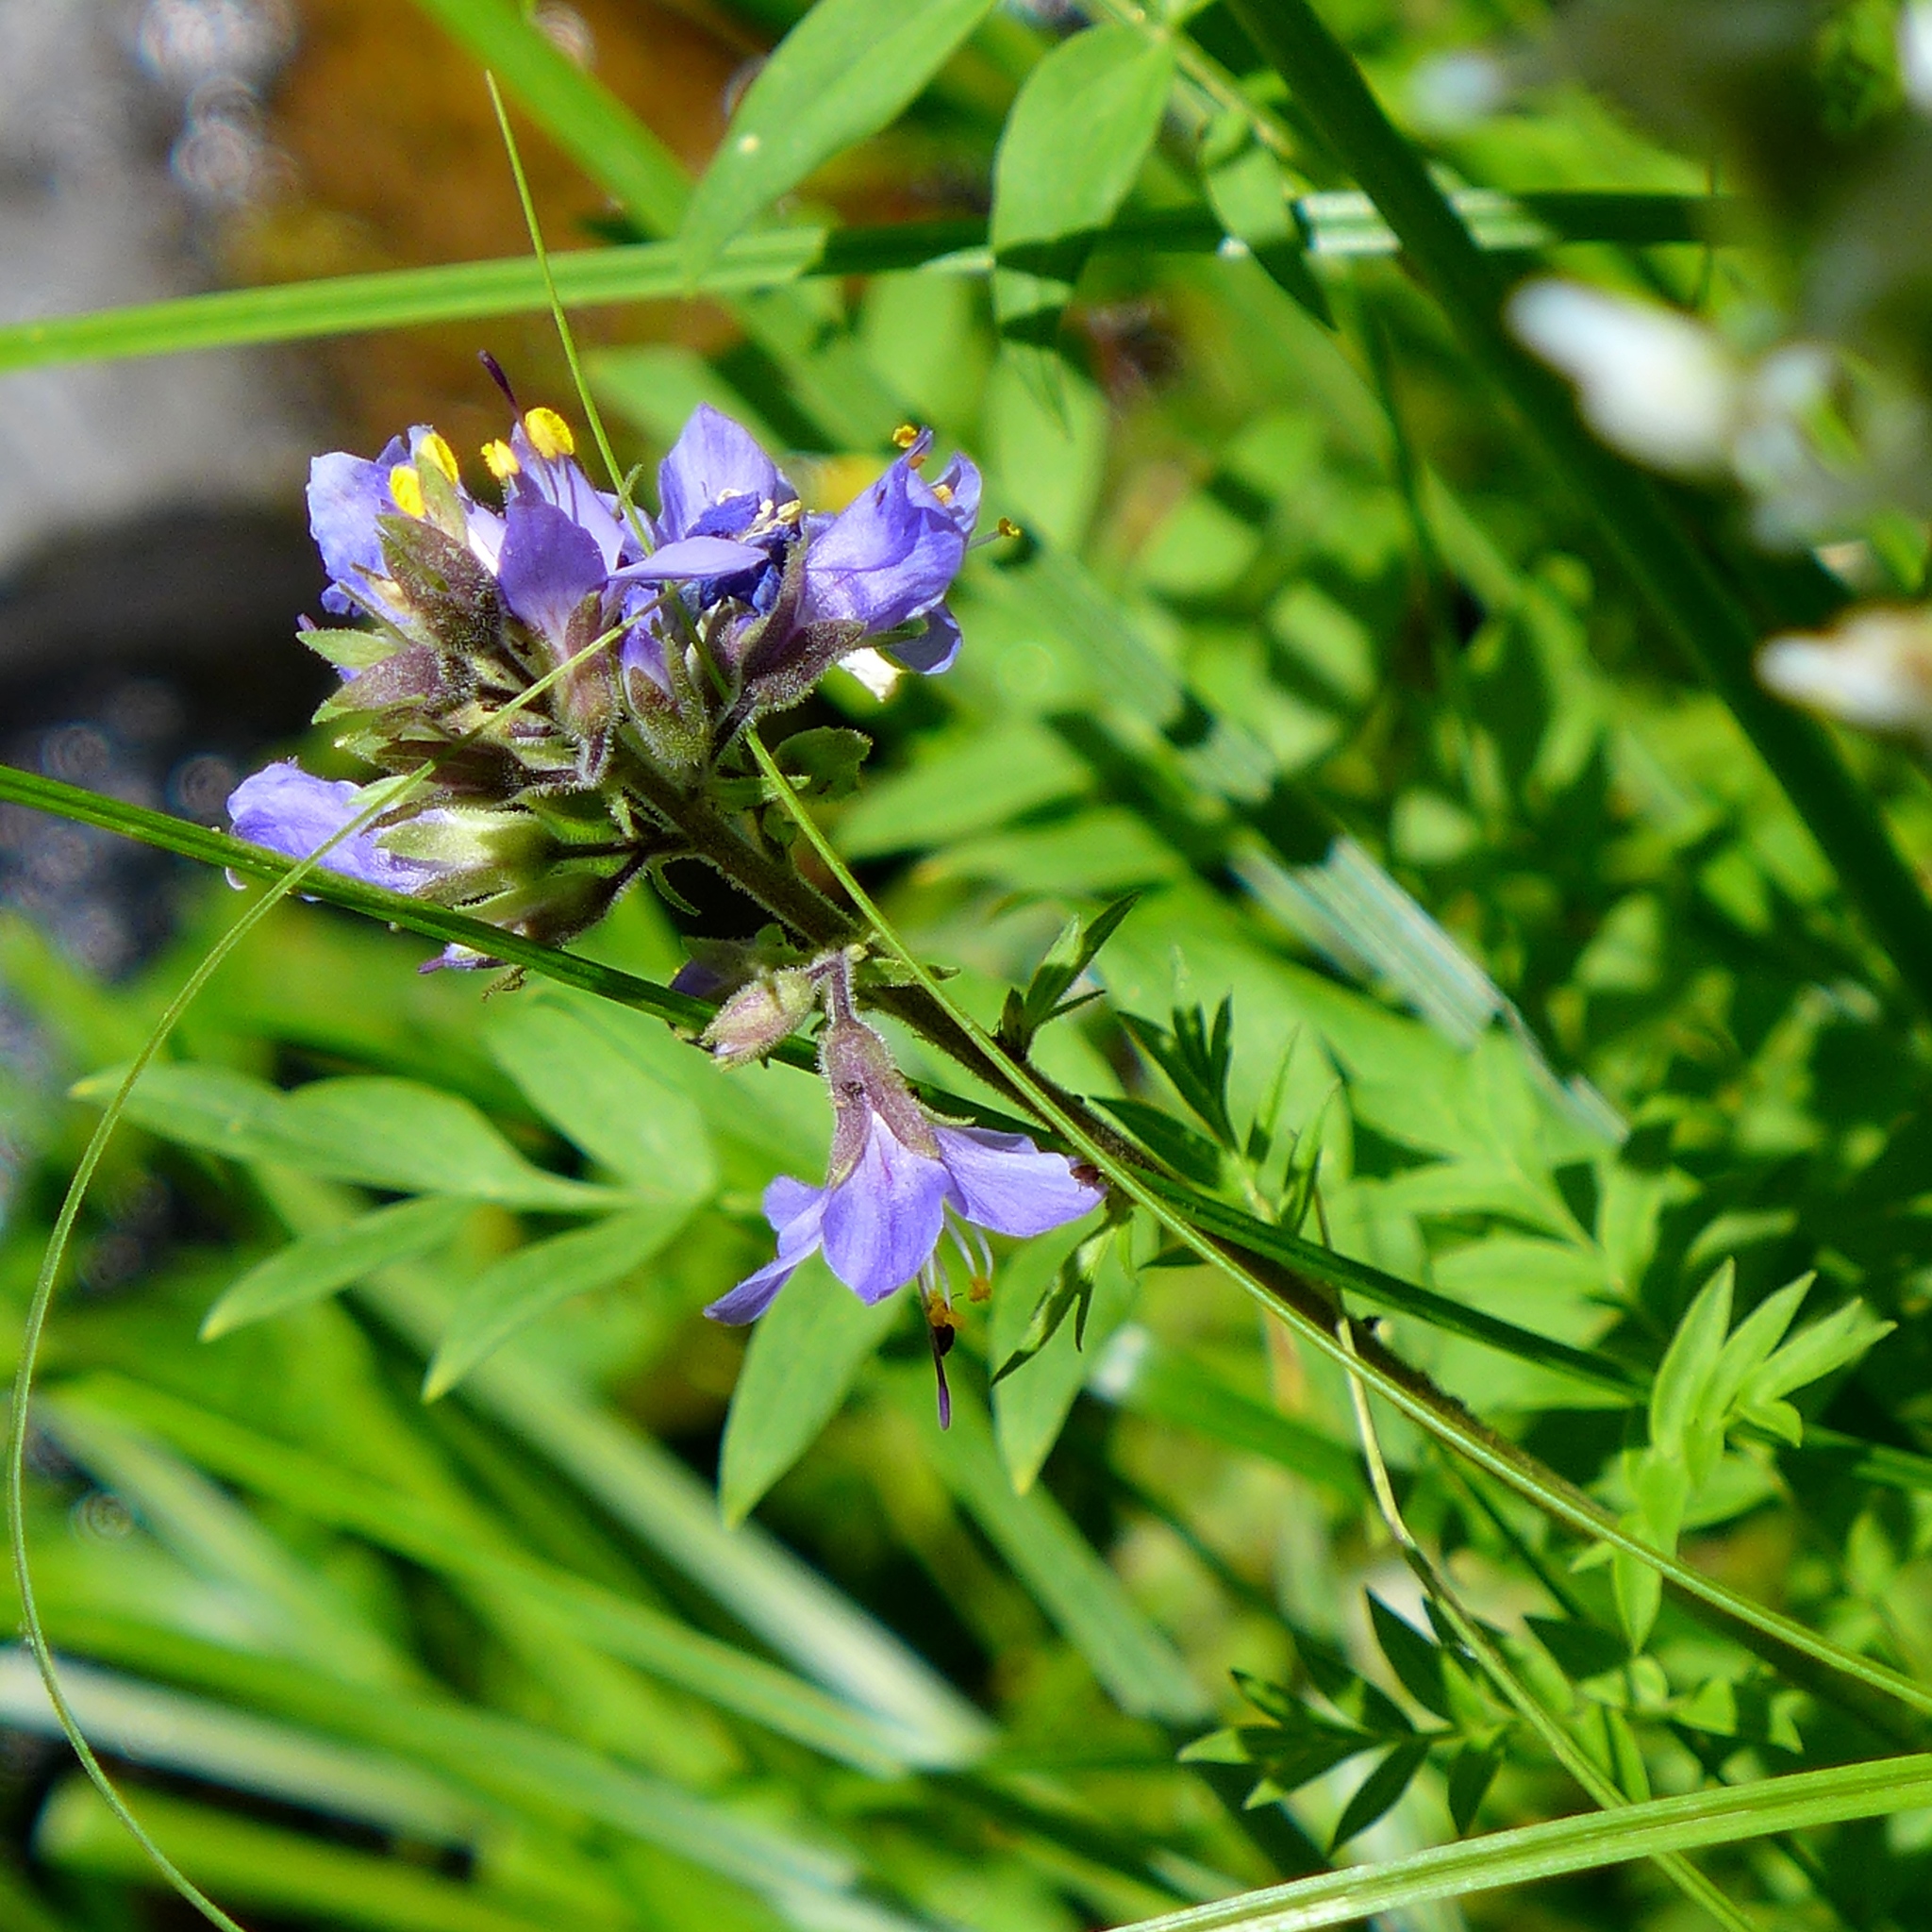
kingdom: Plantae
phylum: Tracheophyta
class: Magnoliopsida
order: Ericales
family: Polemoniaceae
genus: Polemonium
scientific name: Polemonium occidentale
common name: Western jacob's-ladder
